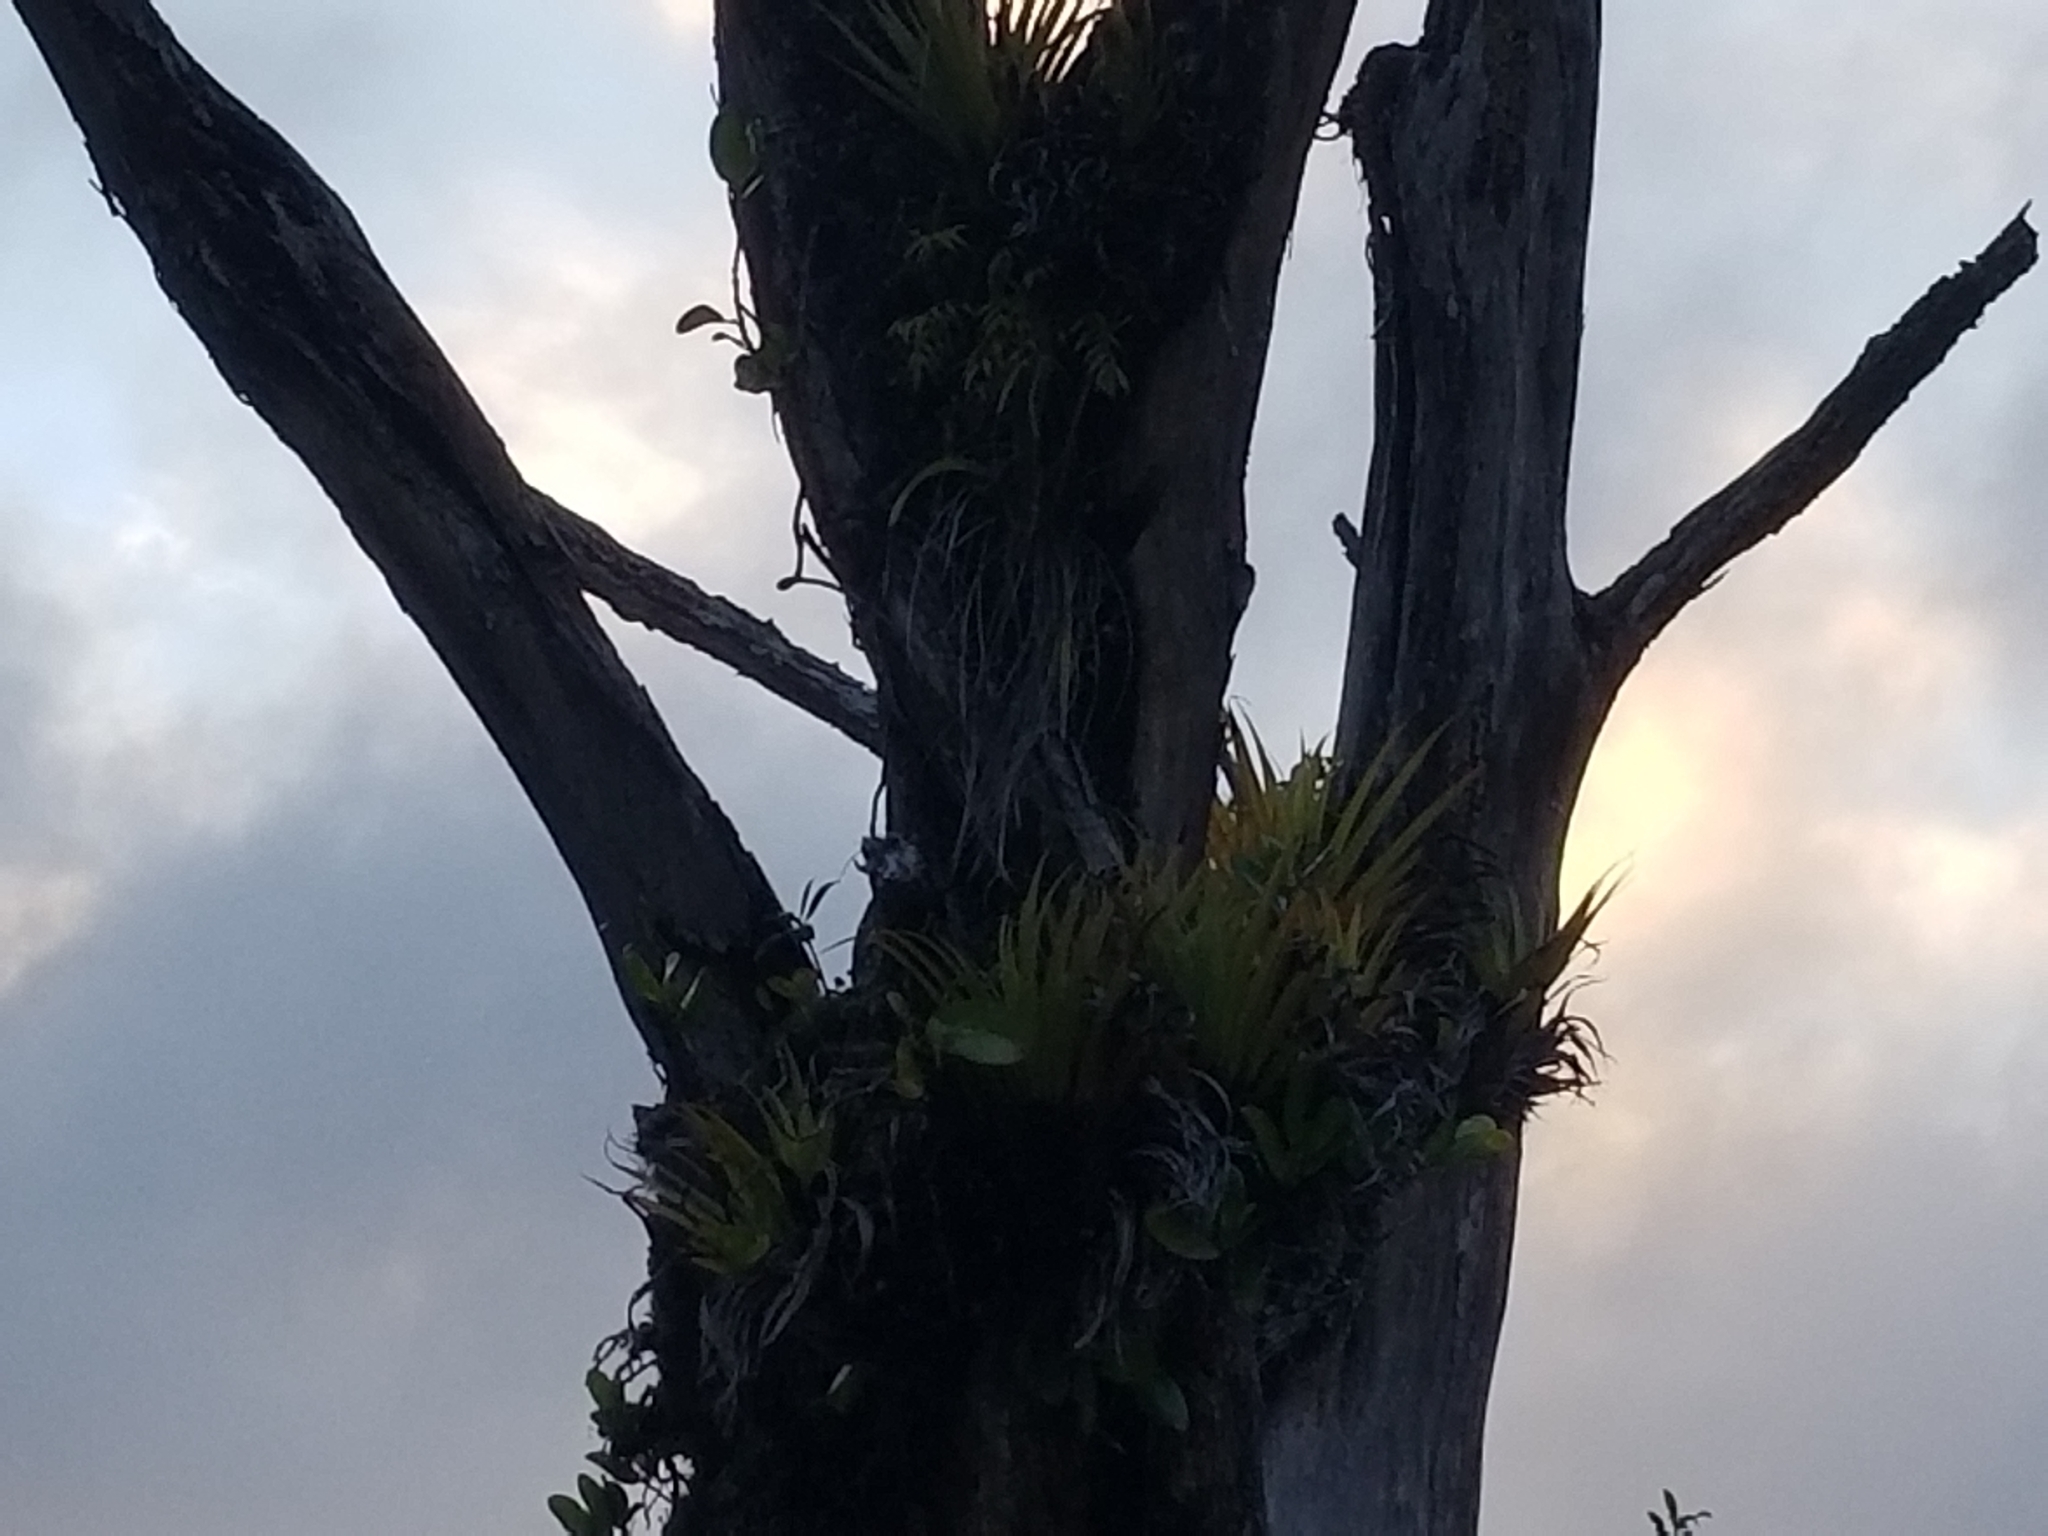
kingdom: Plantae
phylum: Tracheophyta
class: Liliopsida
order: Asparagales
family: Asteliaceae
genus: Astelia
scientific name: Astelia hastata
